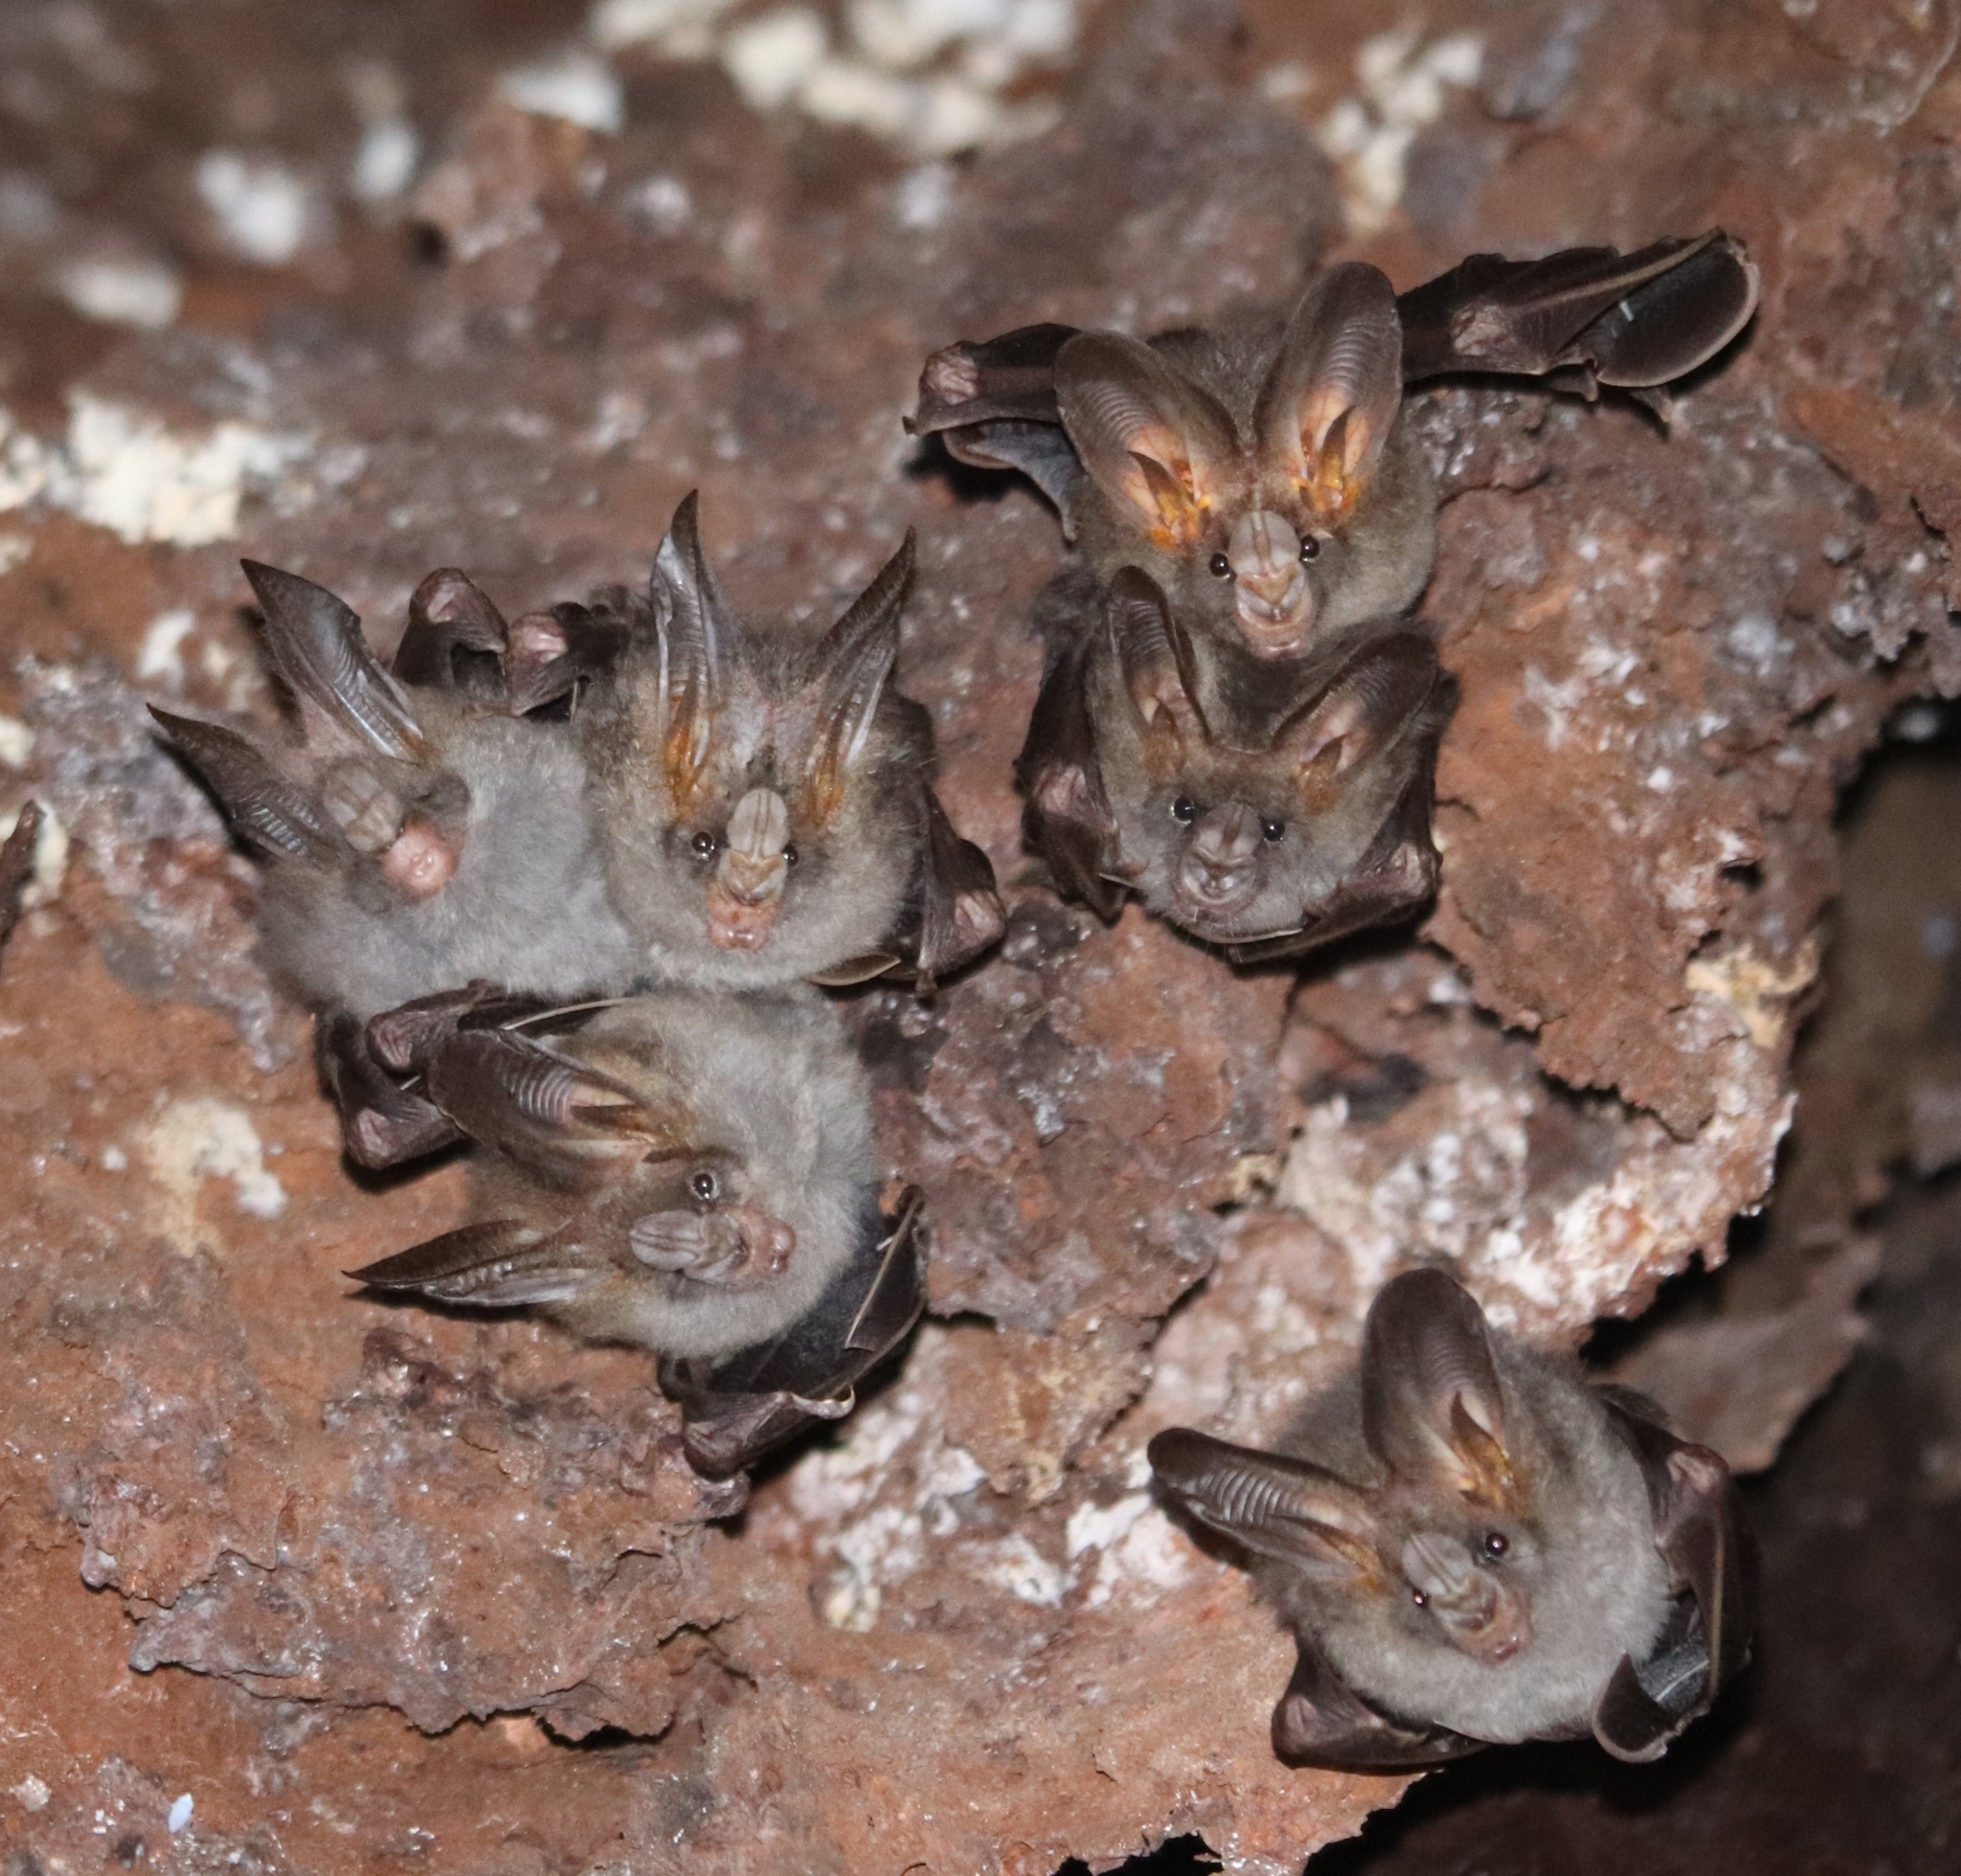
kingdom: Animalia
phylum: Chordata
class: Mammalia
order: Chiroptera
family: Megadermatidae
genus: Megaderma
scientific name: Megaderma spasma
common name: Lesser false vampire bat
